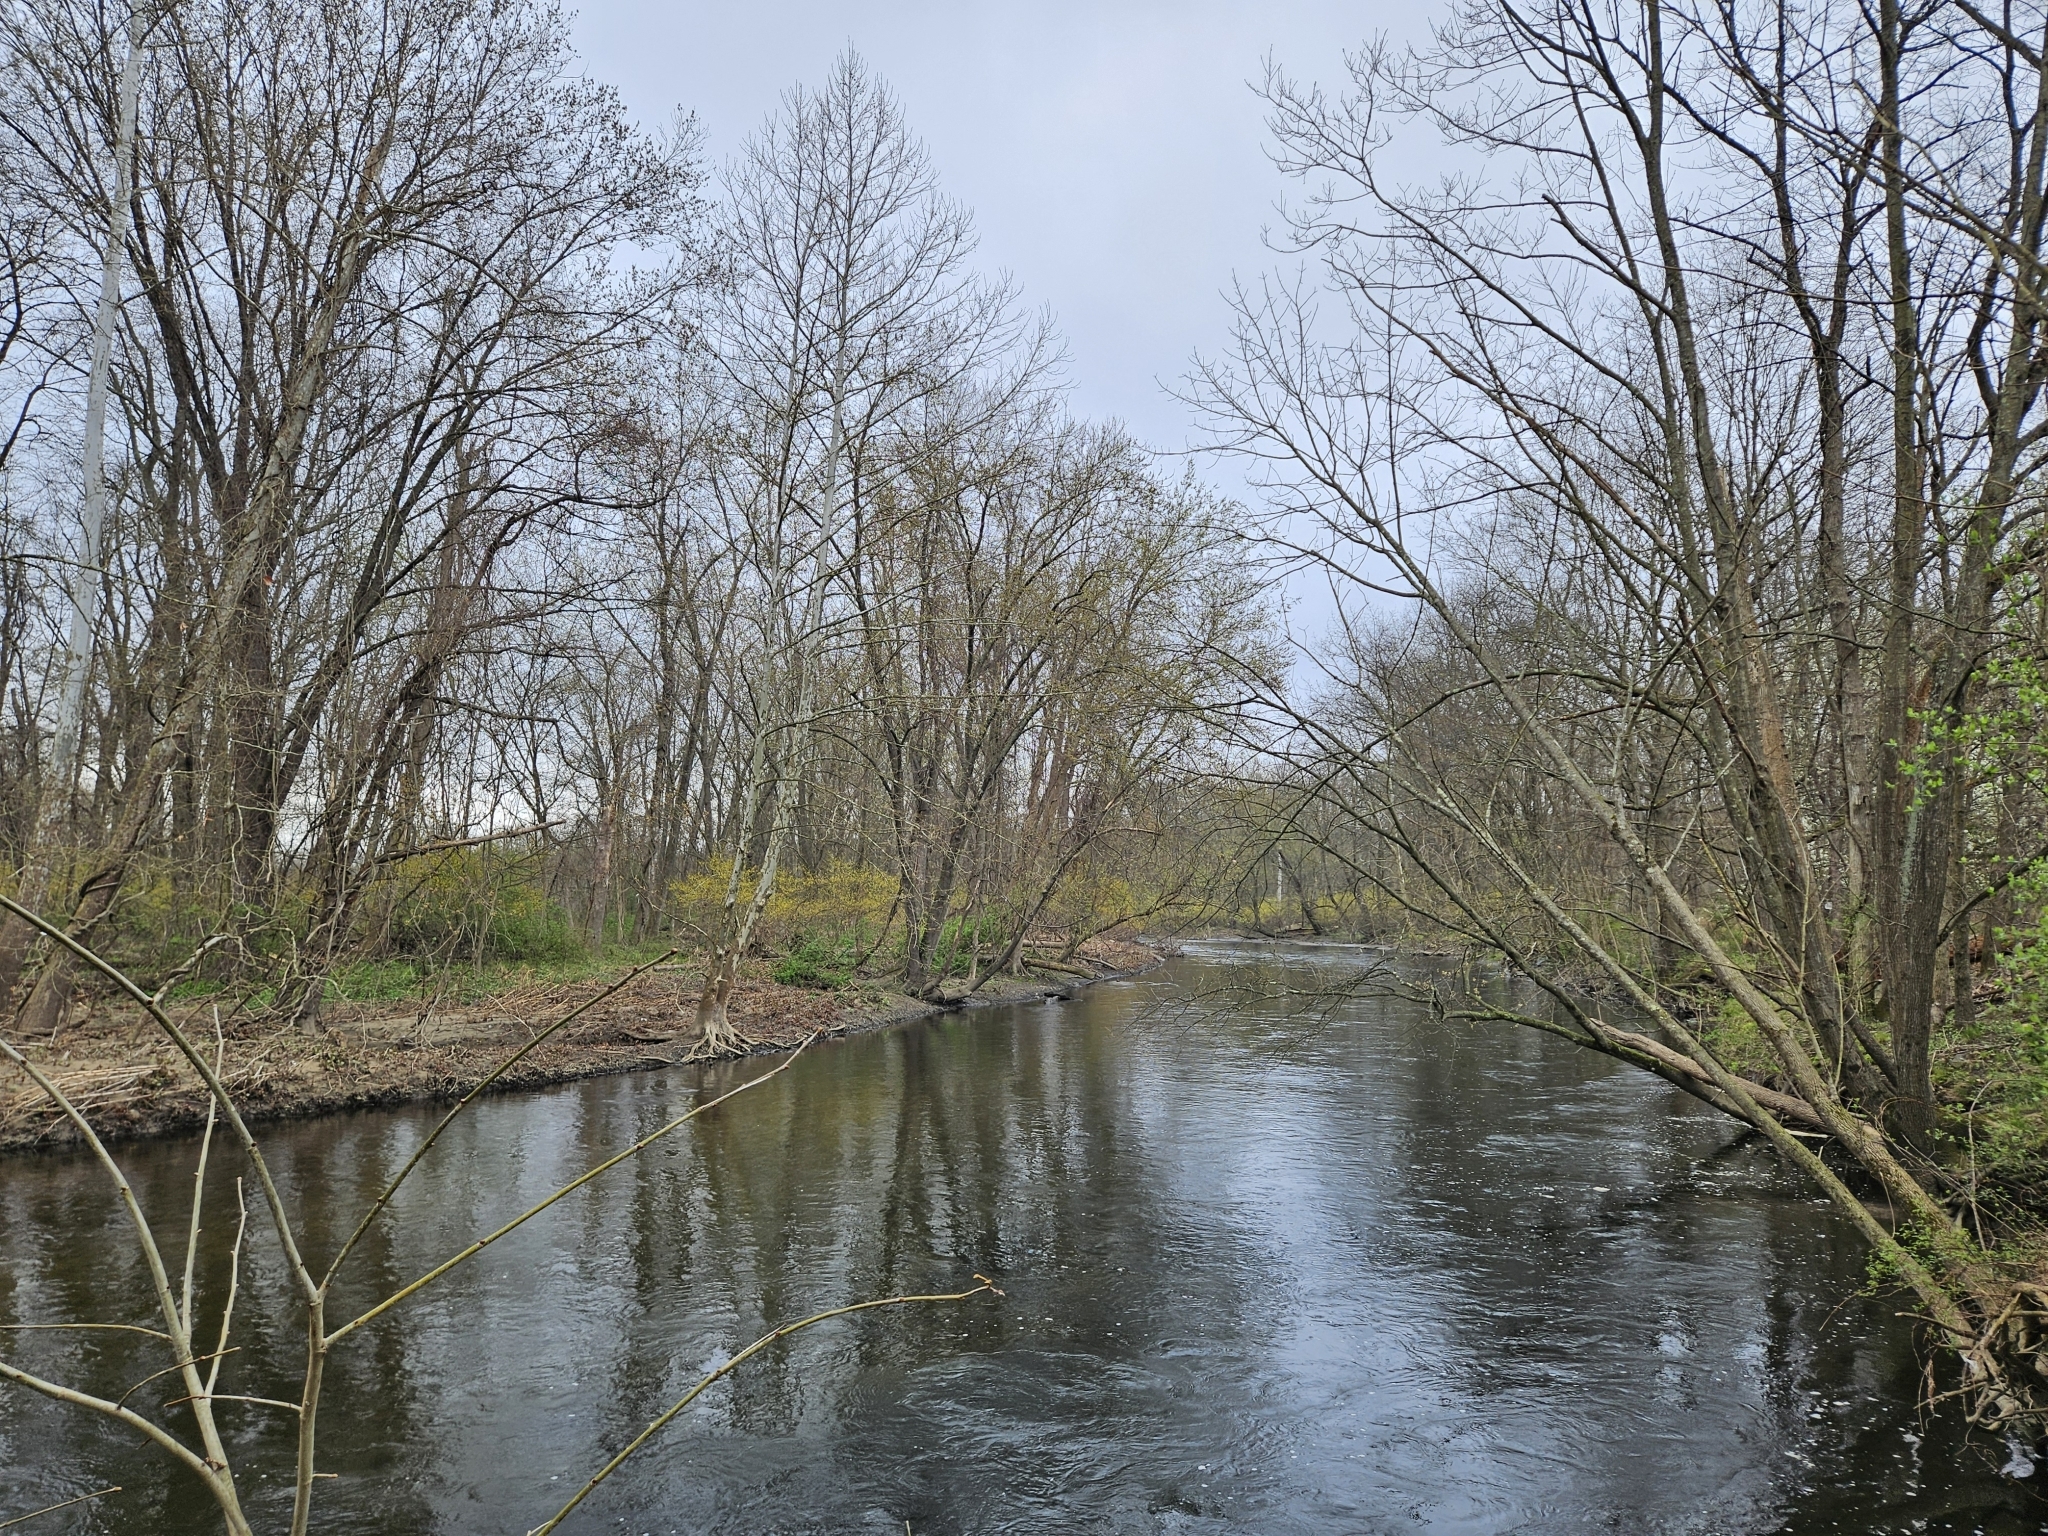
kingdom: Plantae
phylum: Tracheophyta
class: Magnoliopsida
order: Laurales
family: Lauraceae
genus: Lindera
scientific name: Lindera benzoin
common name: Spicebush
